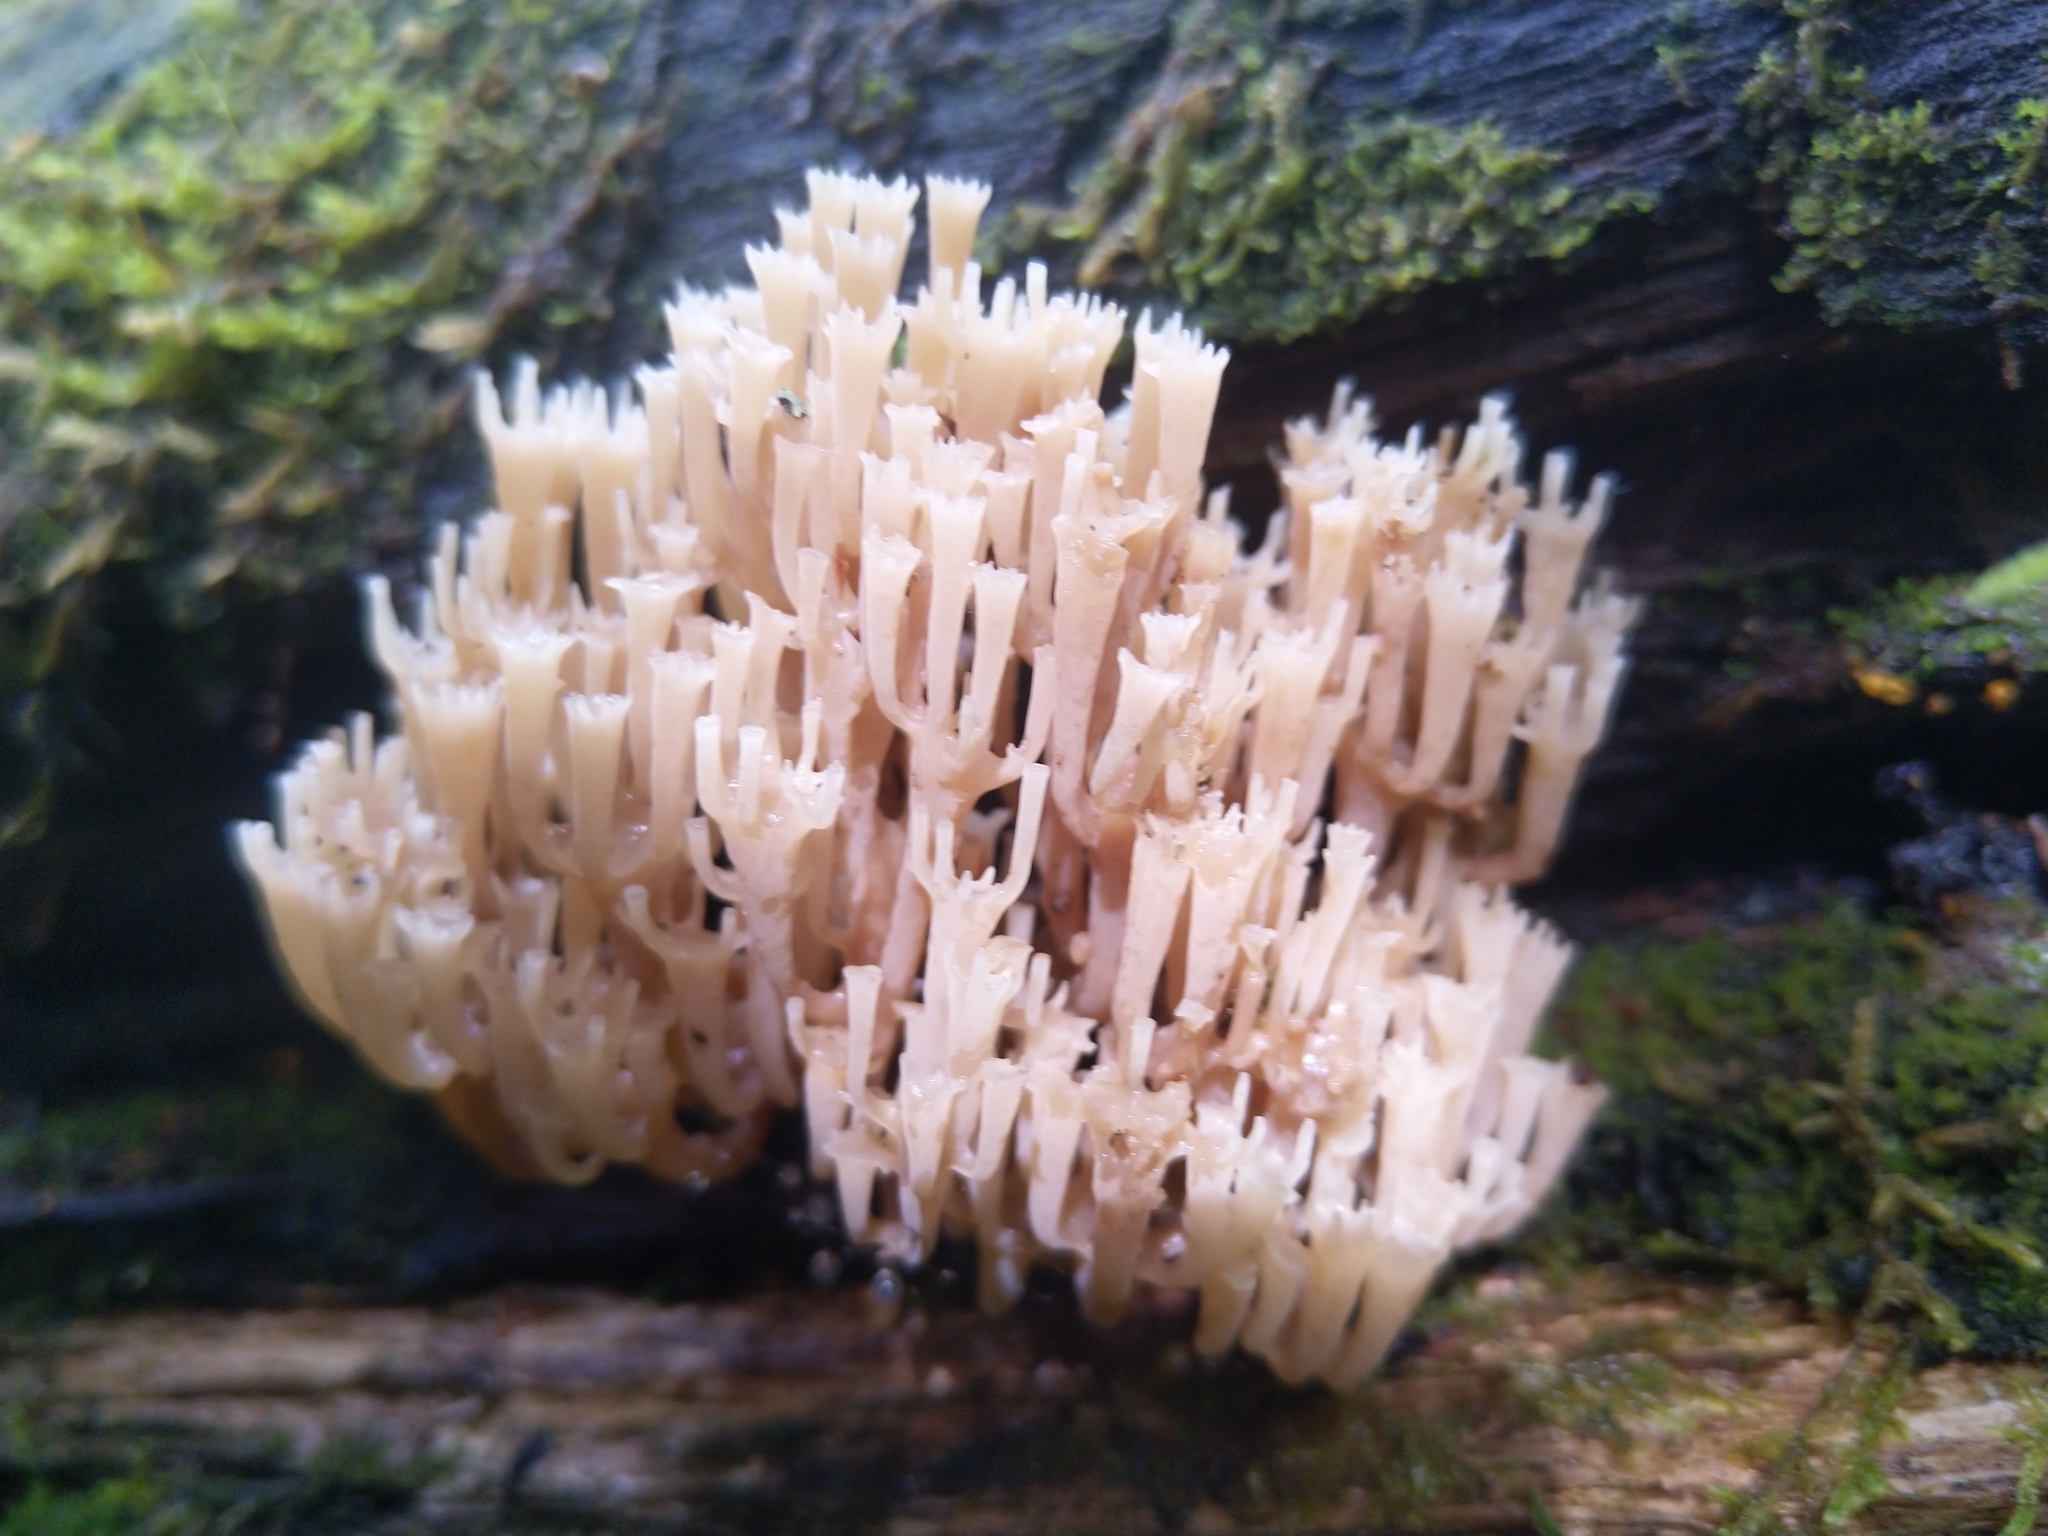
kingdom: Fungi
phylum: Basidiomycota
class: Agaricomycetes
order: Russulales
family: Auriscalpiaceae
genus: Artomyces
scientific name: Artomyces pyxidatus
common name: Crown-tipped coral fungus
